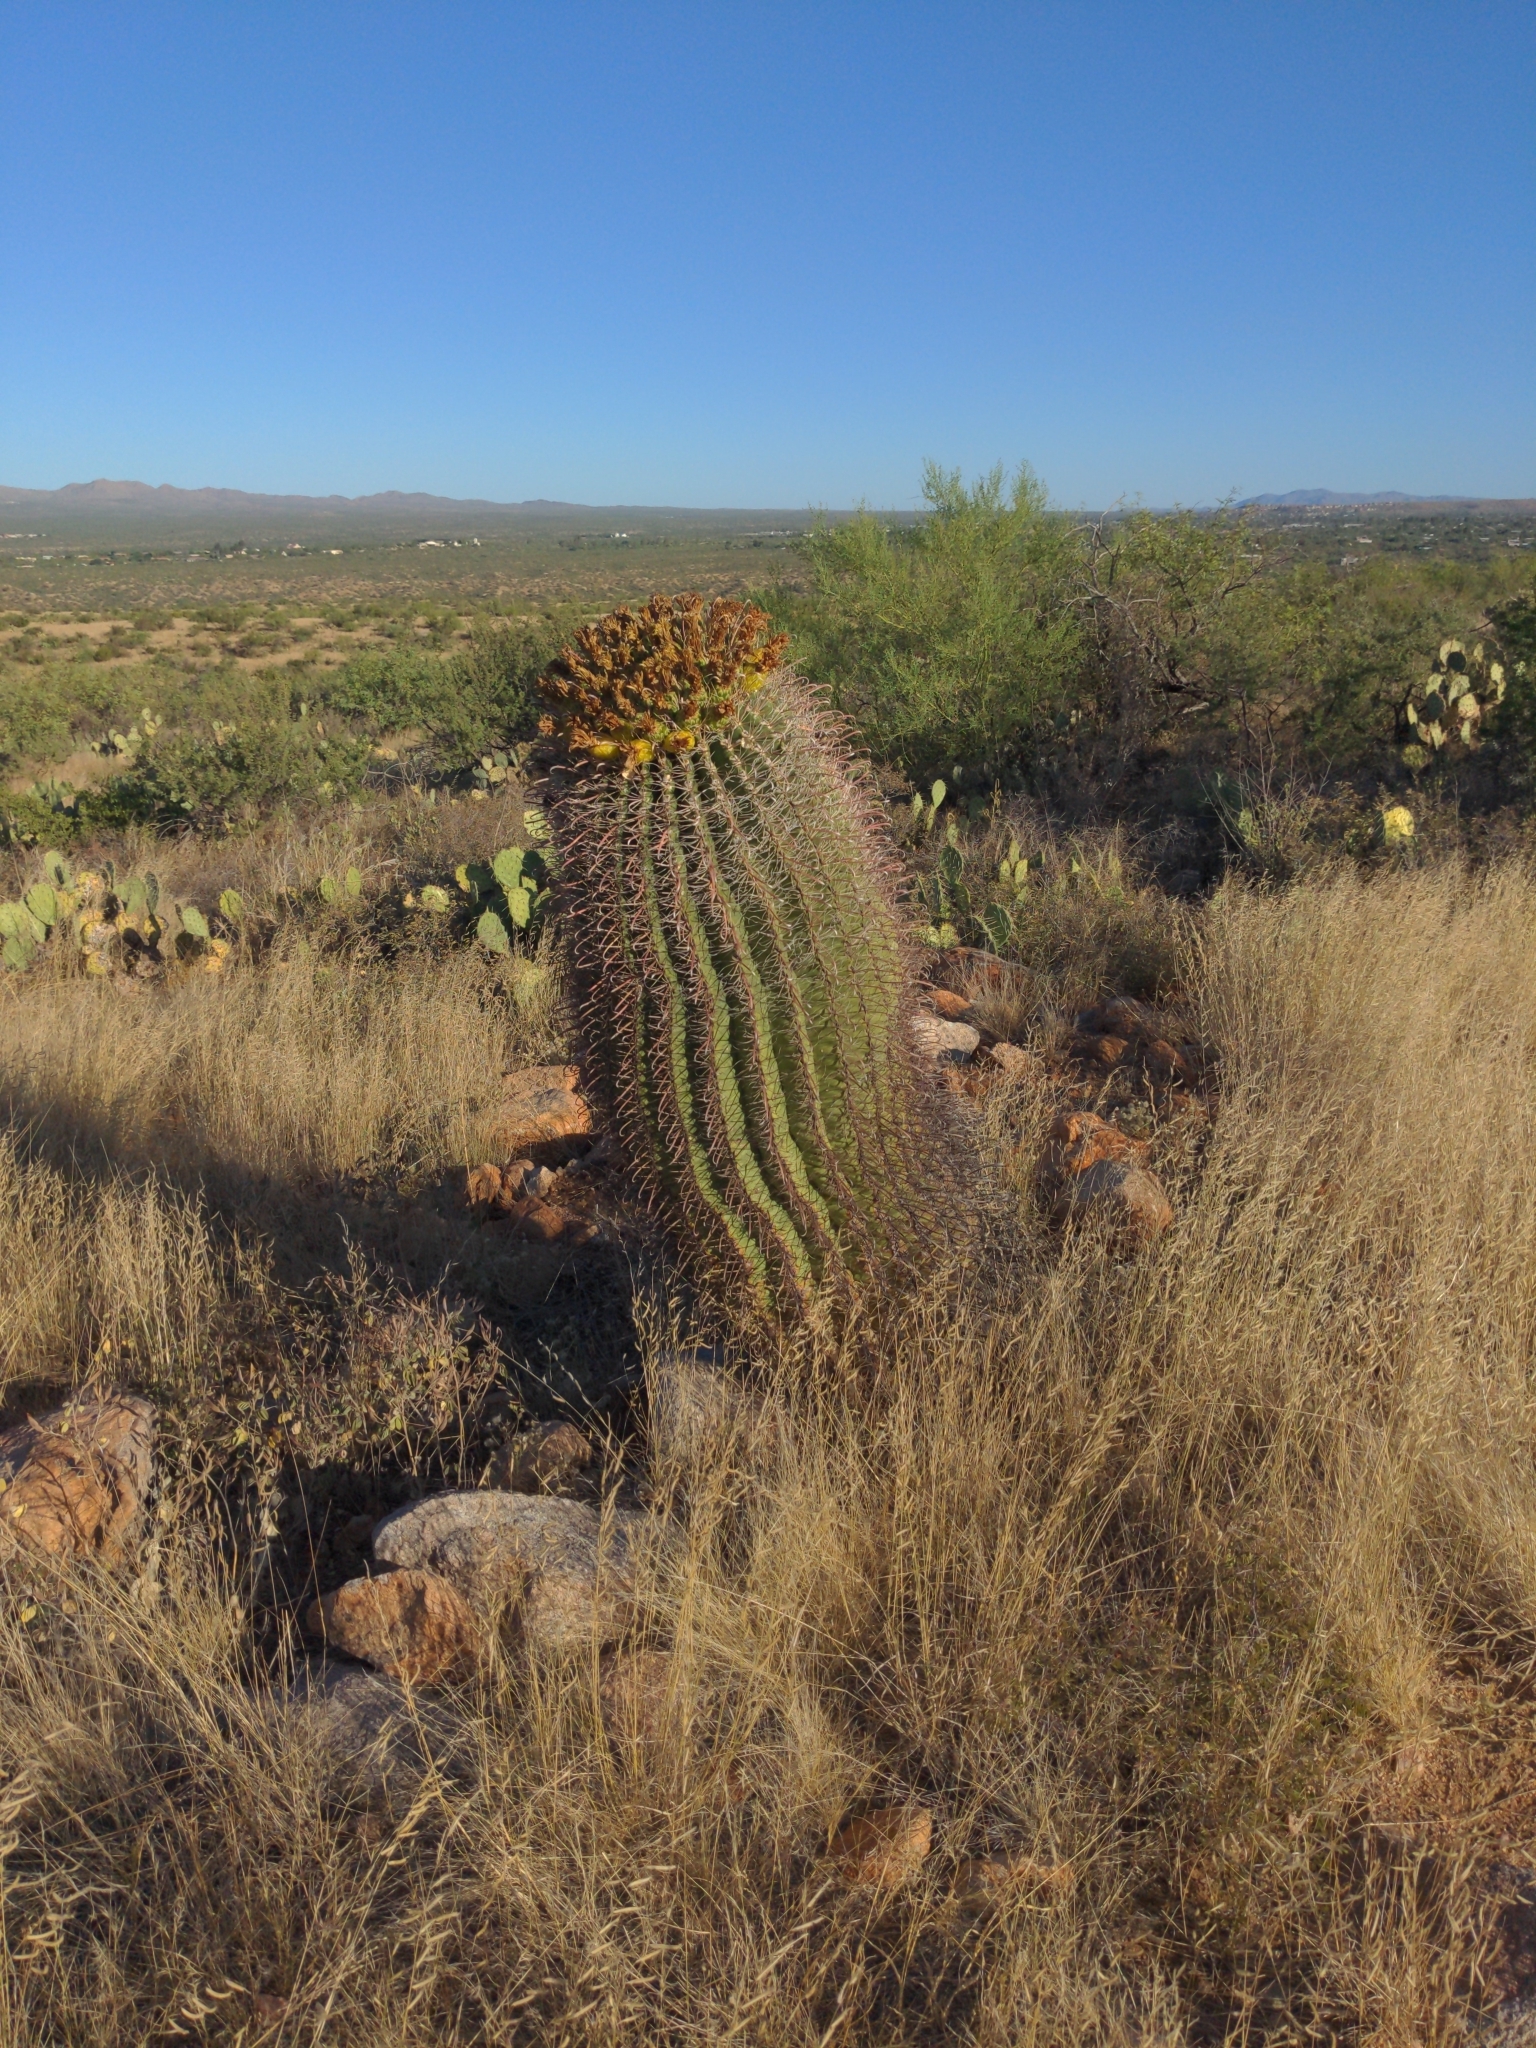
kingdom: Plantae
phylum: Tracheophyta
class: Magnoliopsida
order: Caryophyllales
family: Cactaceae
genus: Ferocactus
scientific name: Ferocactus wislizeni
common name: Candy barrel cactus
